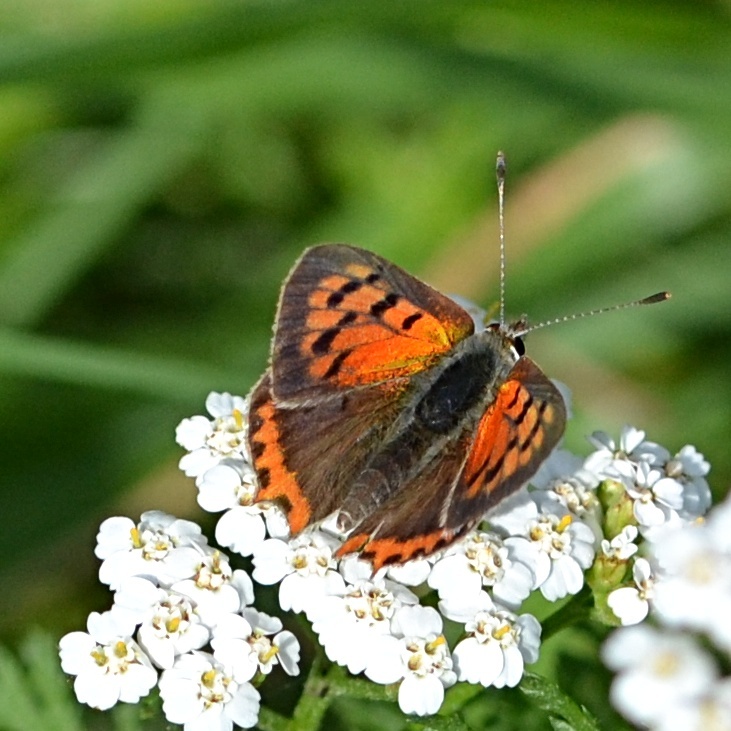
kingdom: Animalia
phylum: Arthropoda
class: Insecta
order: Lepidoptera
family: Lycaenidae
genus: Lycaena
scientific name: Lycaena phlaeas
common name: Small copper
